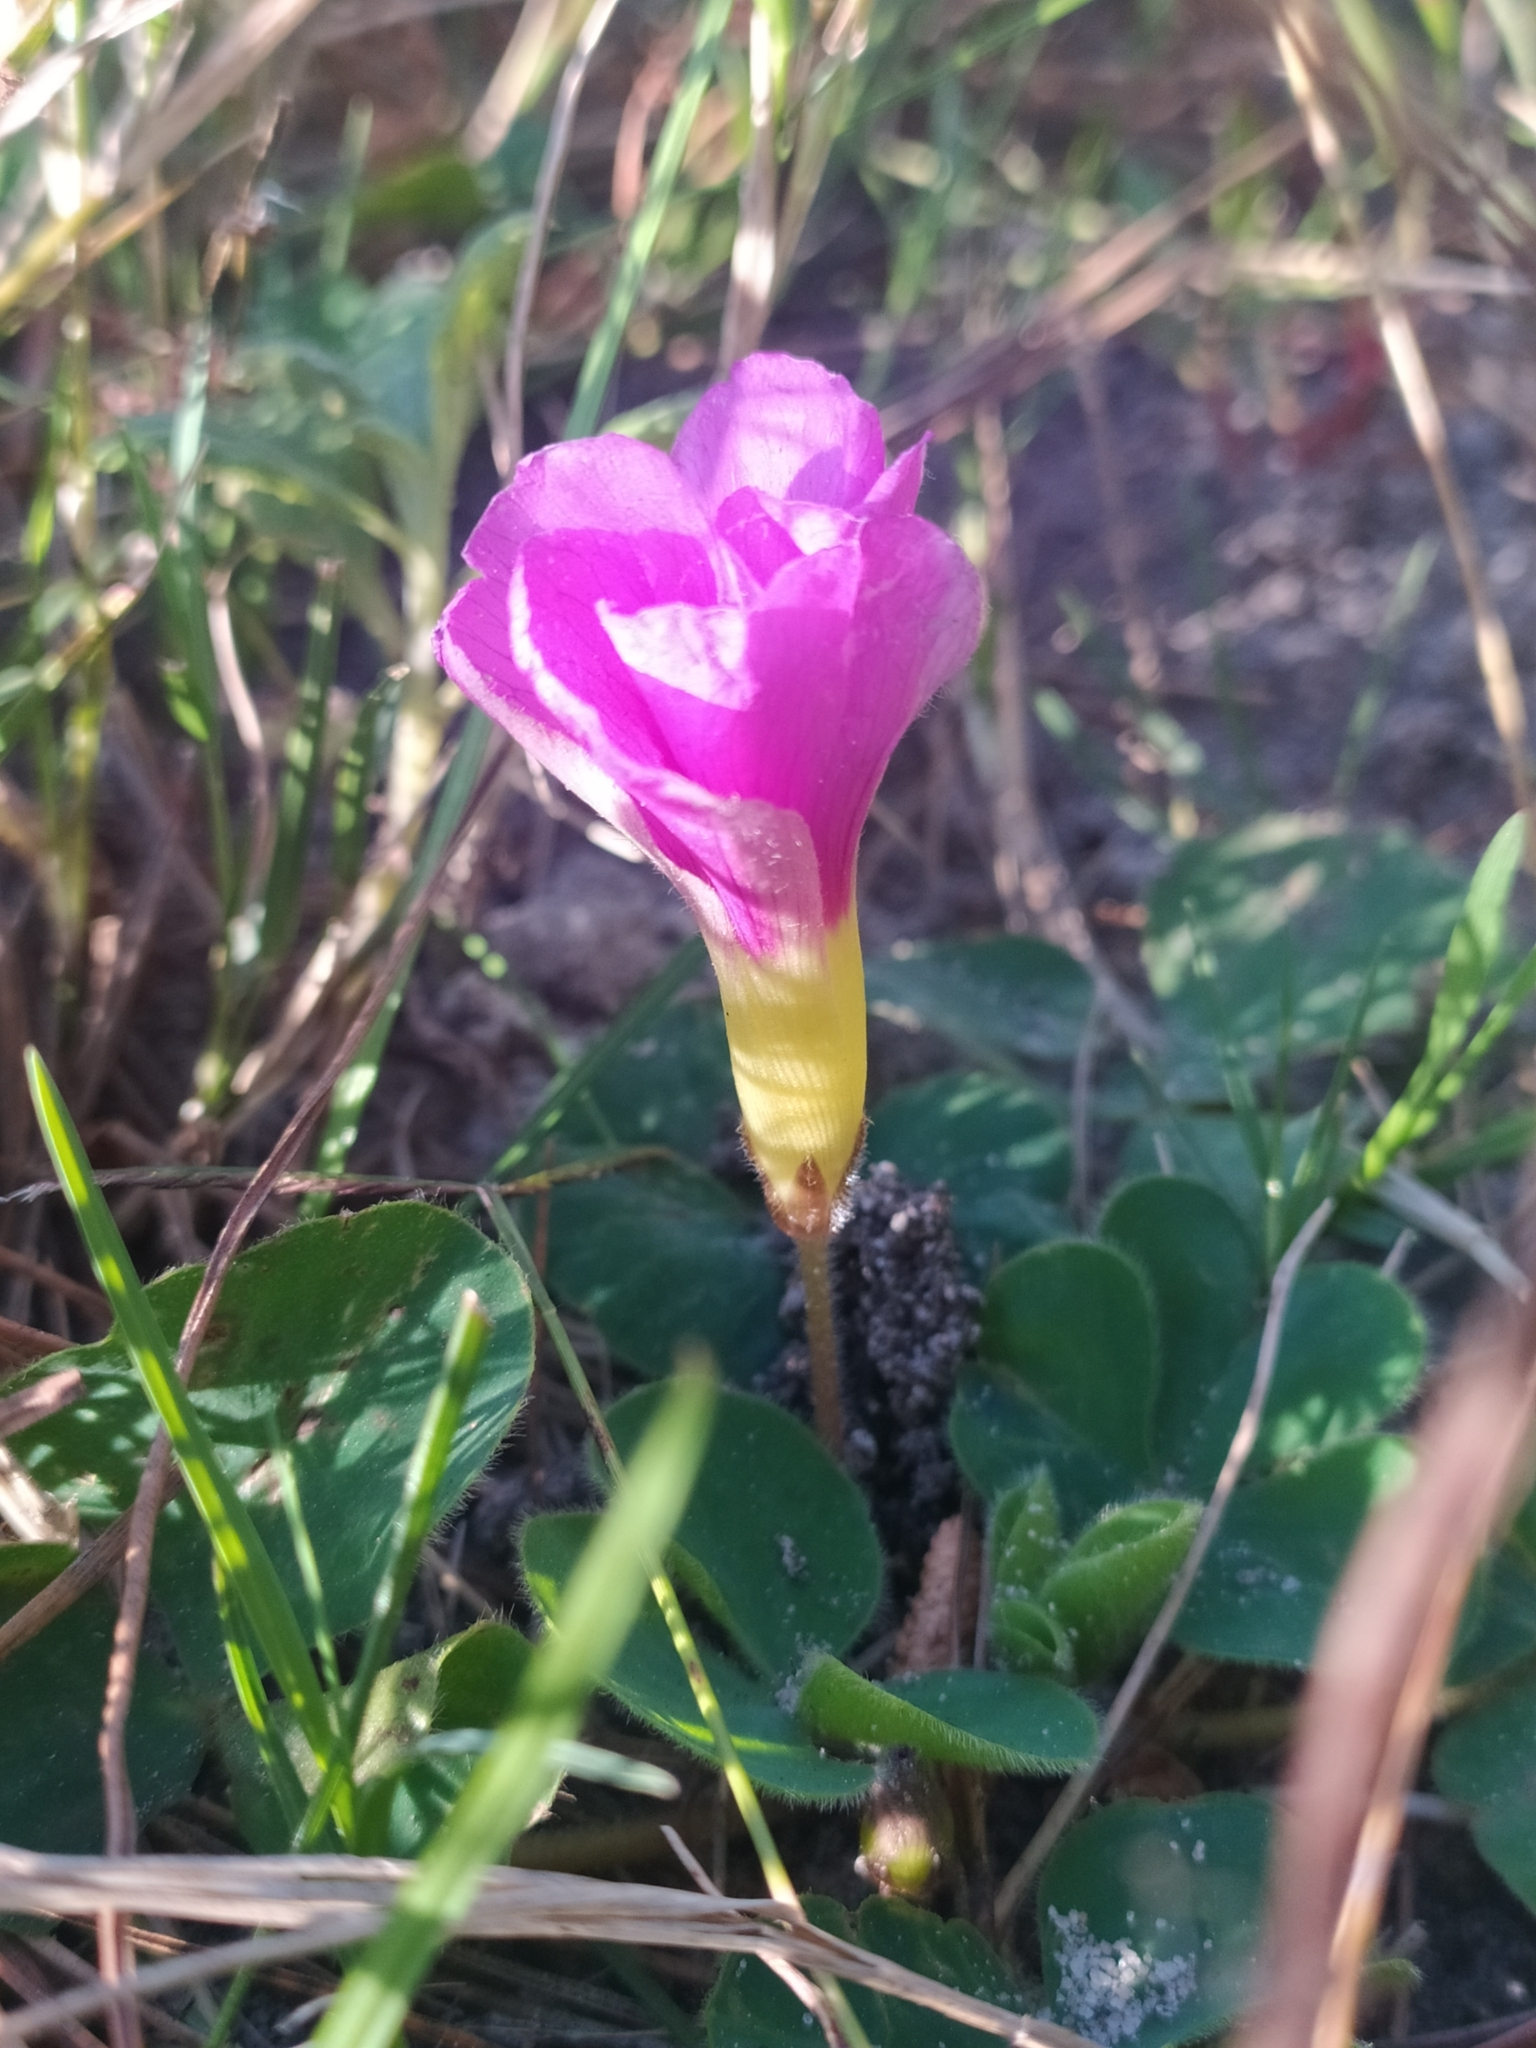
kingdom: Plantae
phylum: Tracheophyta
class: Magnoliopsida
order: Oxalidales
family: Oxalidaceae
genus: Oxalis
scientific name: Oxalis purpurea
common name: Purple woodsorrel
